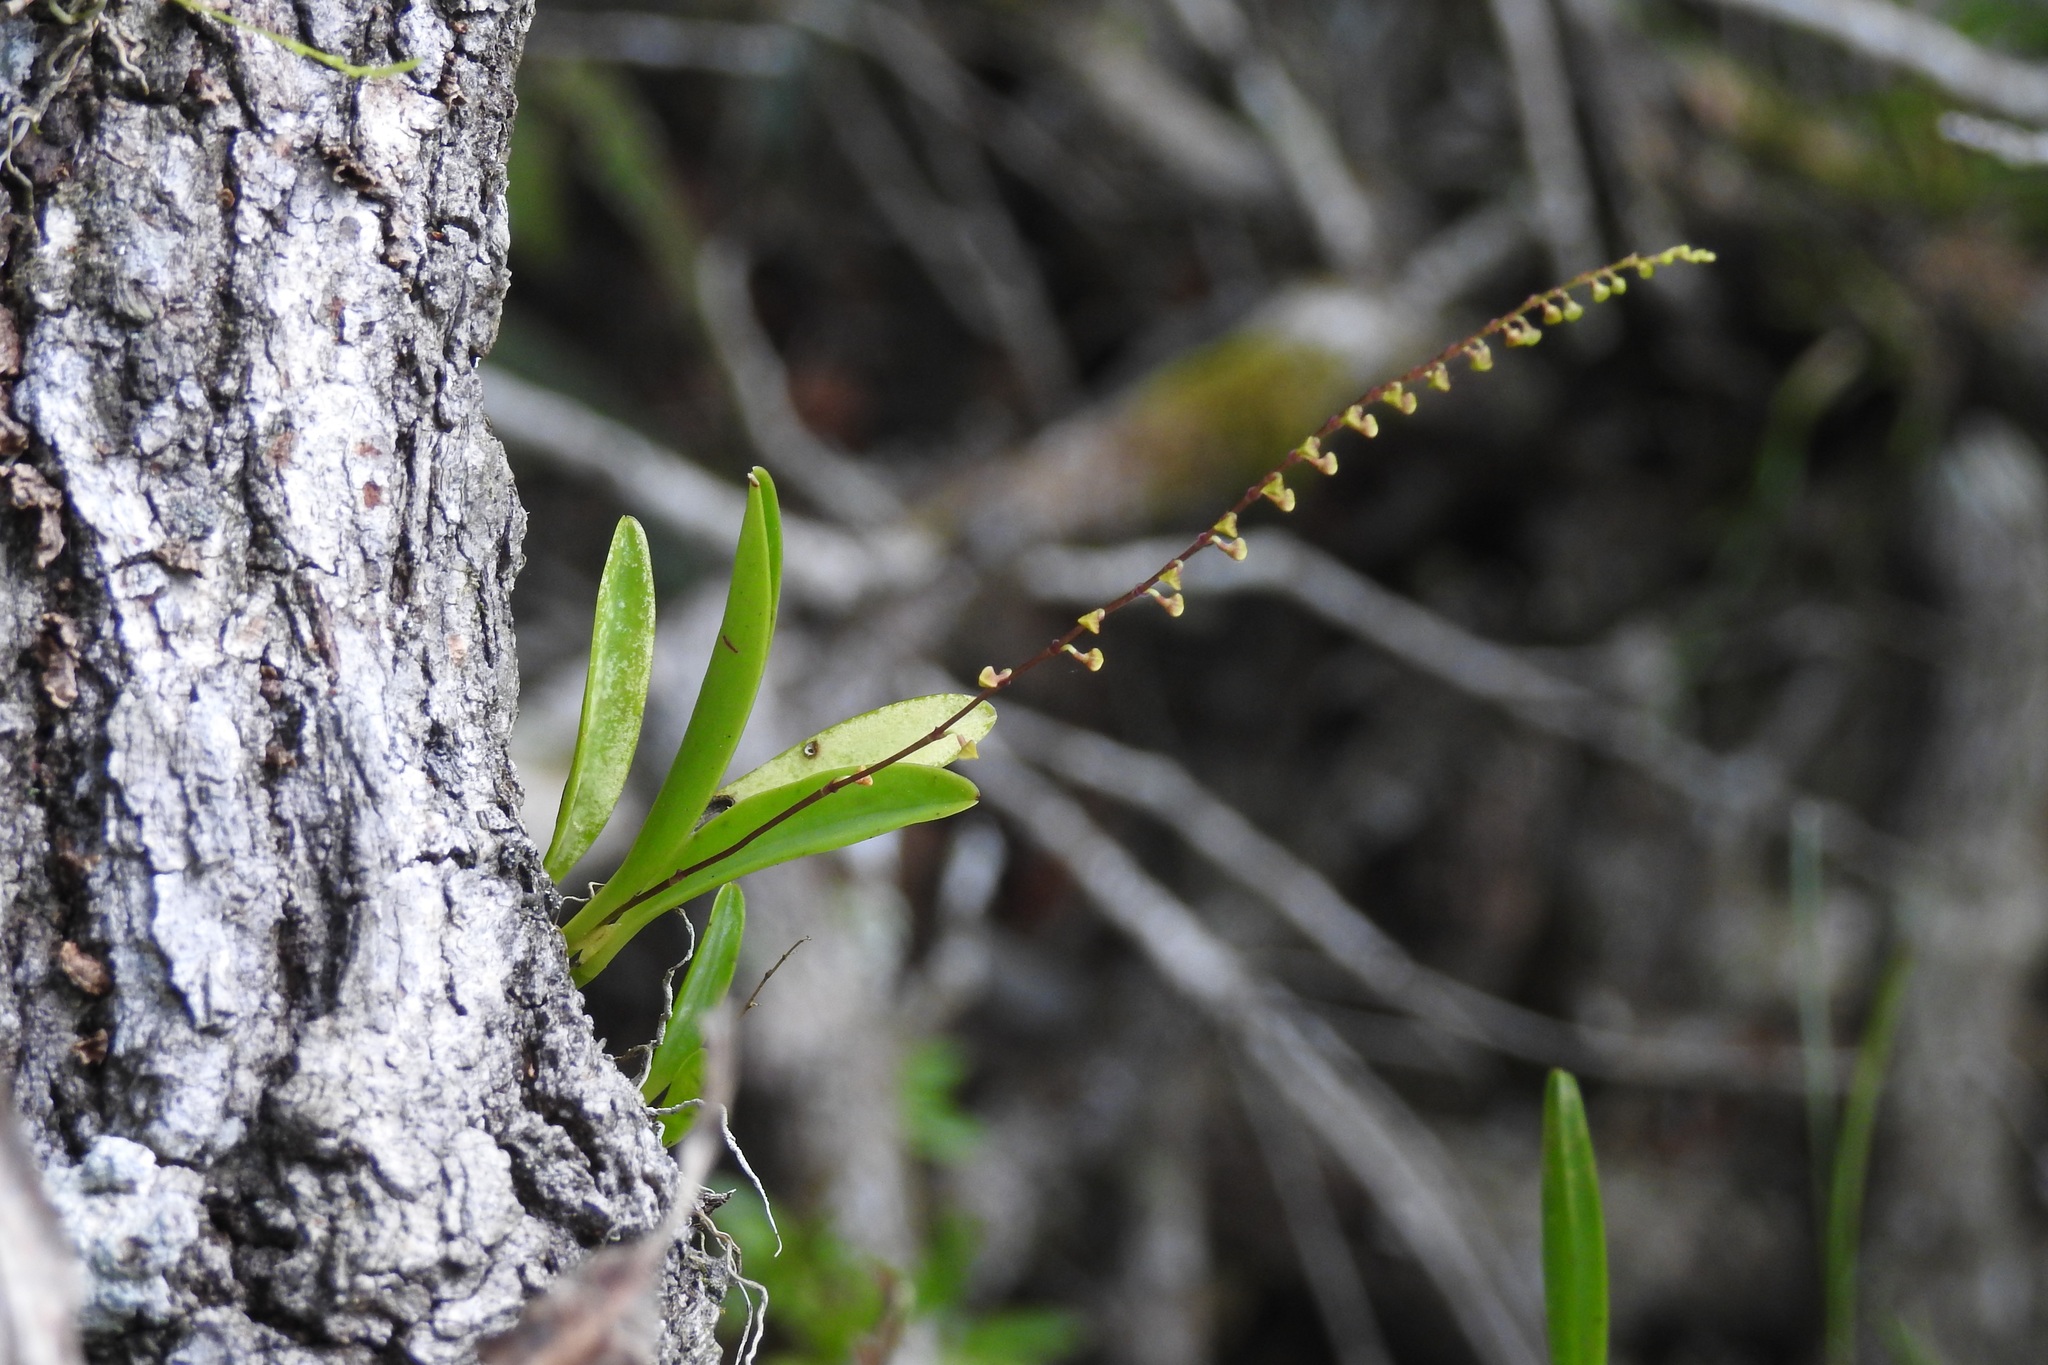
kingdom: Plantae
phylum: Tracheophyta
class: Liliopsida
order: Asparagales
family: Orchidaceae
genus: Stelis
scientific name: Stelis purpurascens
